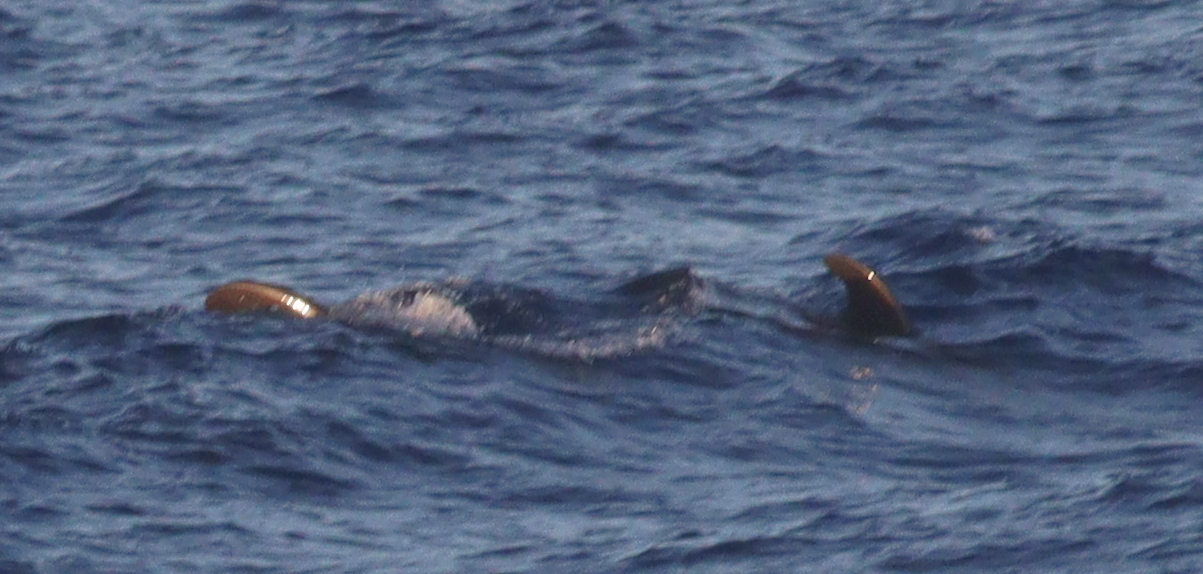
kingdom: Animalia
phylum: Chordata
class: Mammalia
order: Cetacea
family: Delphinidae
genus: Globicephala
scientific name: Globicephala macrorhynchus
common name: Short-finned pilot whale
